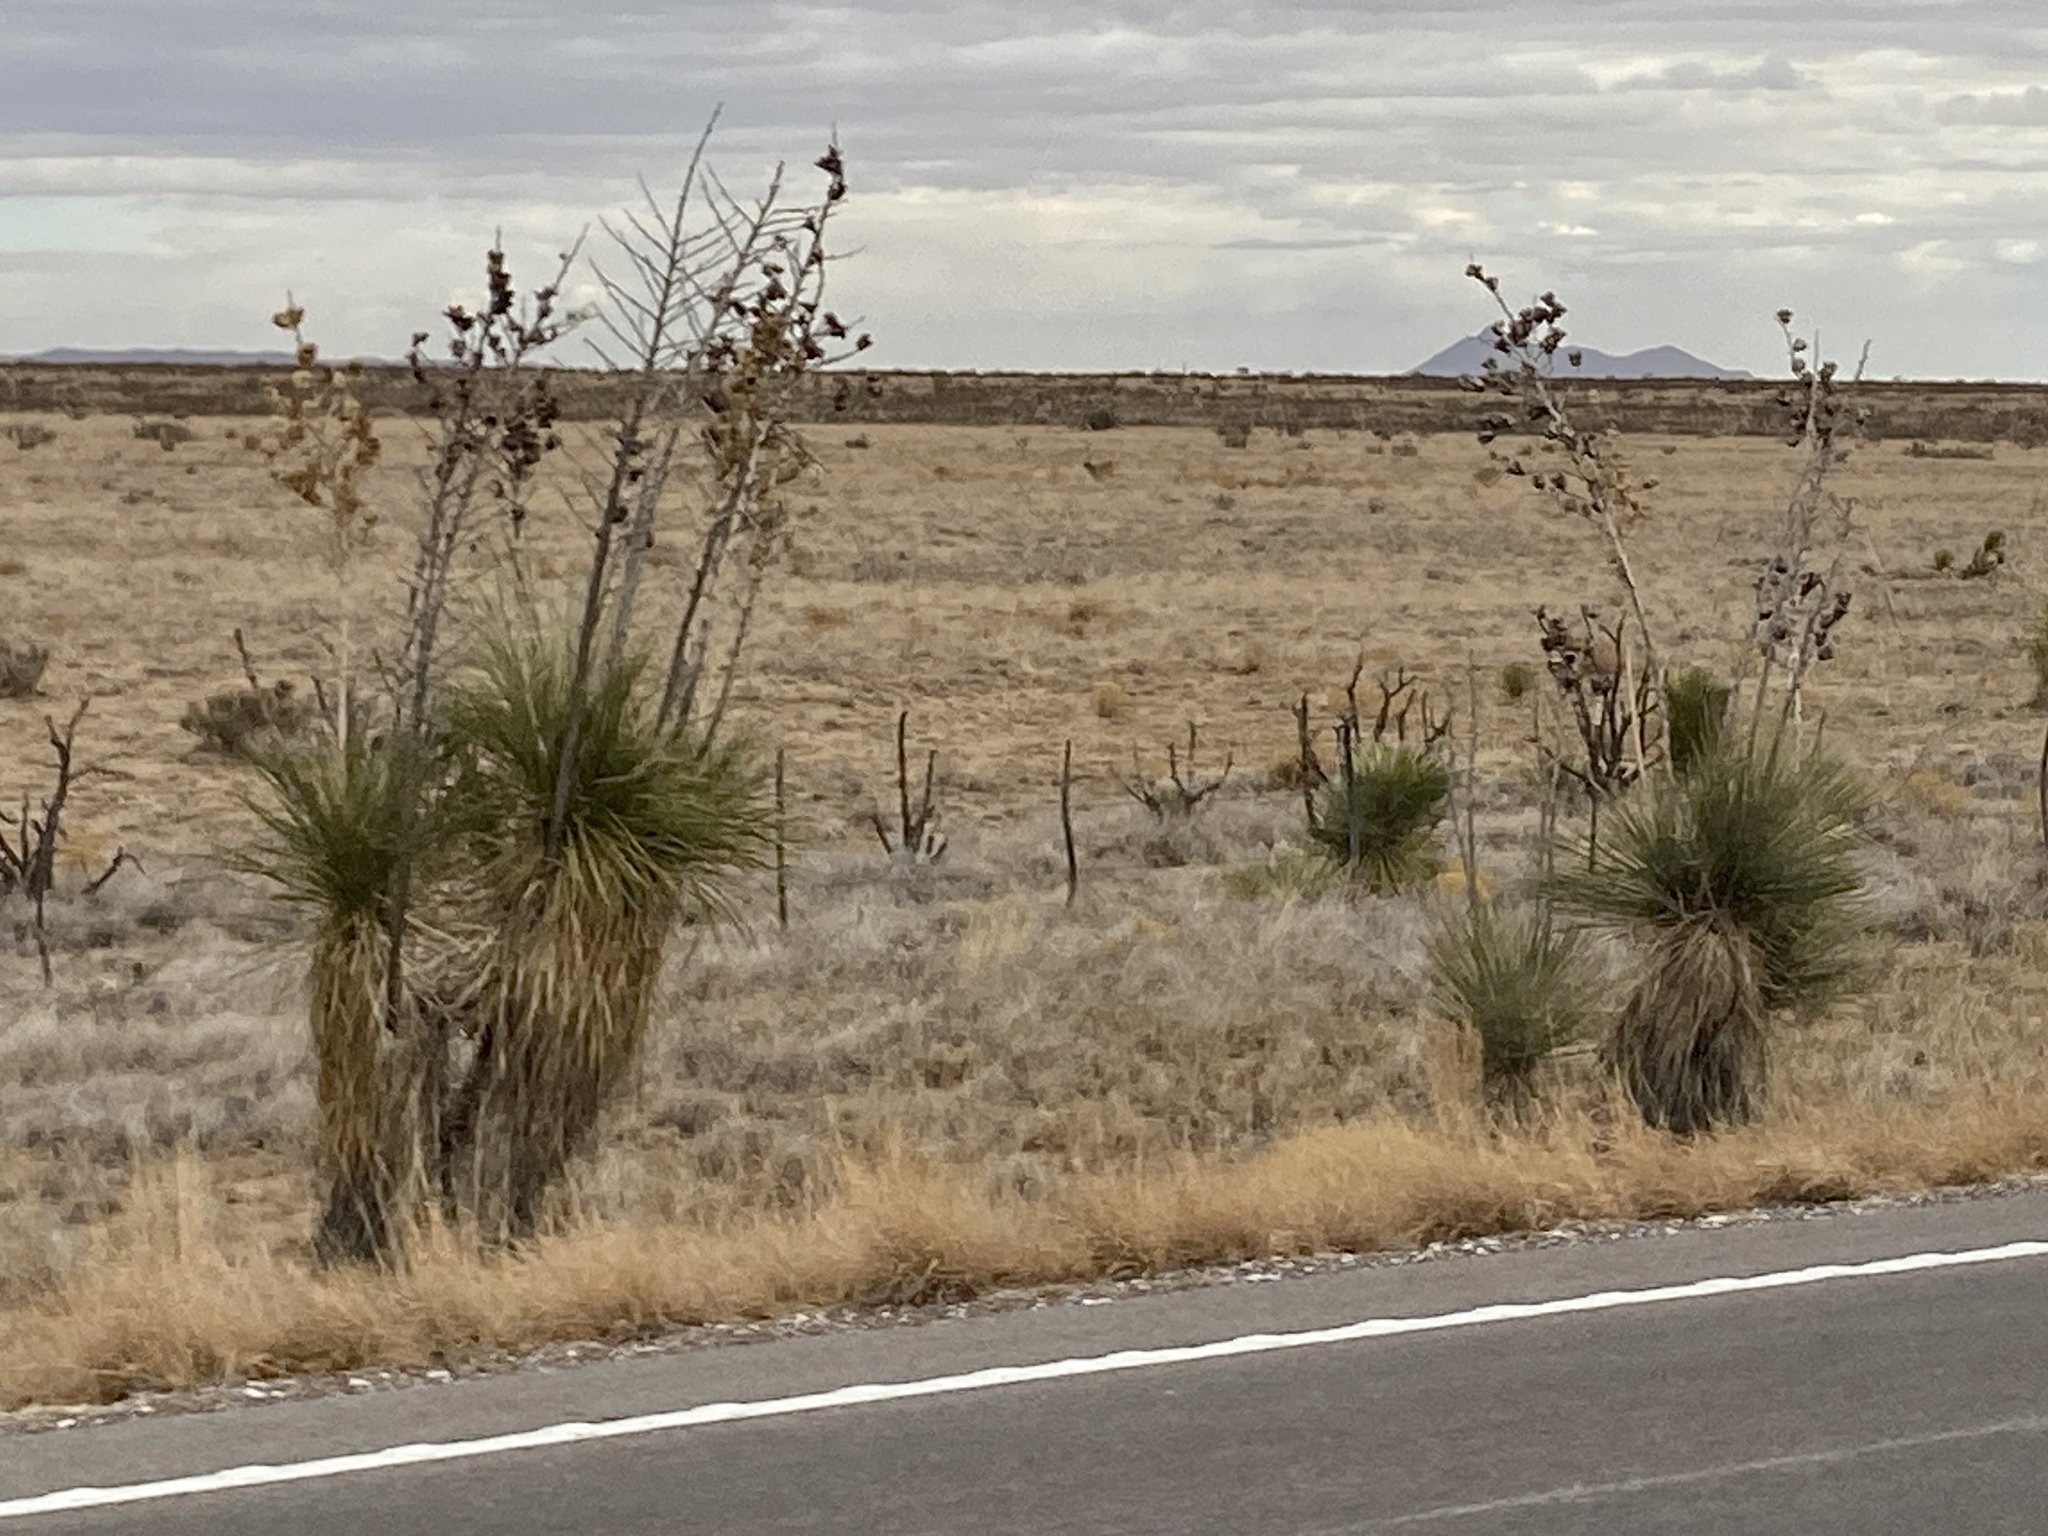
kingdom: Plantae
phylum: Tracheophyta
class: Liliopsida
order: Asparagales
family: Asparagaceae
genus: Yucca
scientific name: Yucca elata
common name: Palmella
